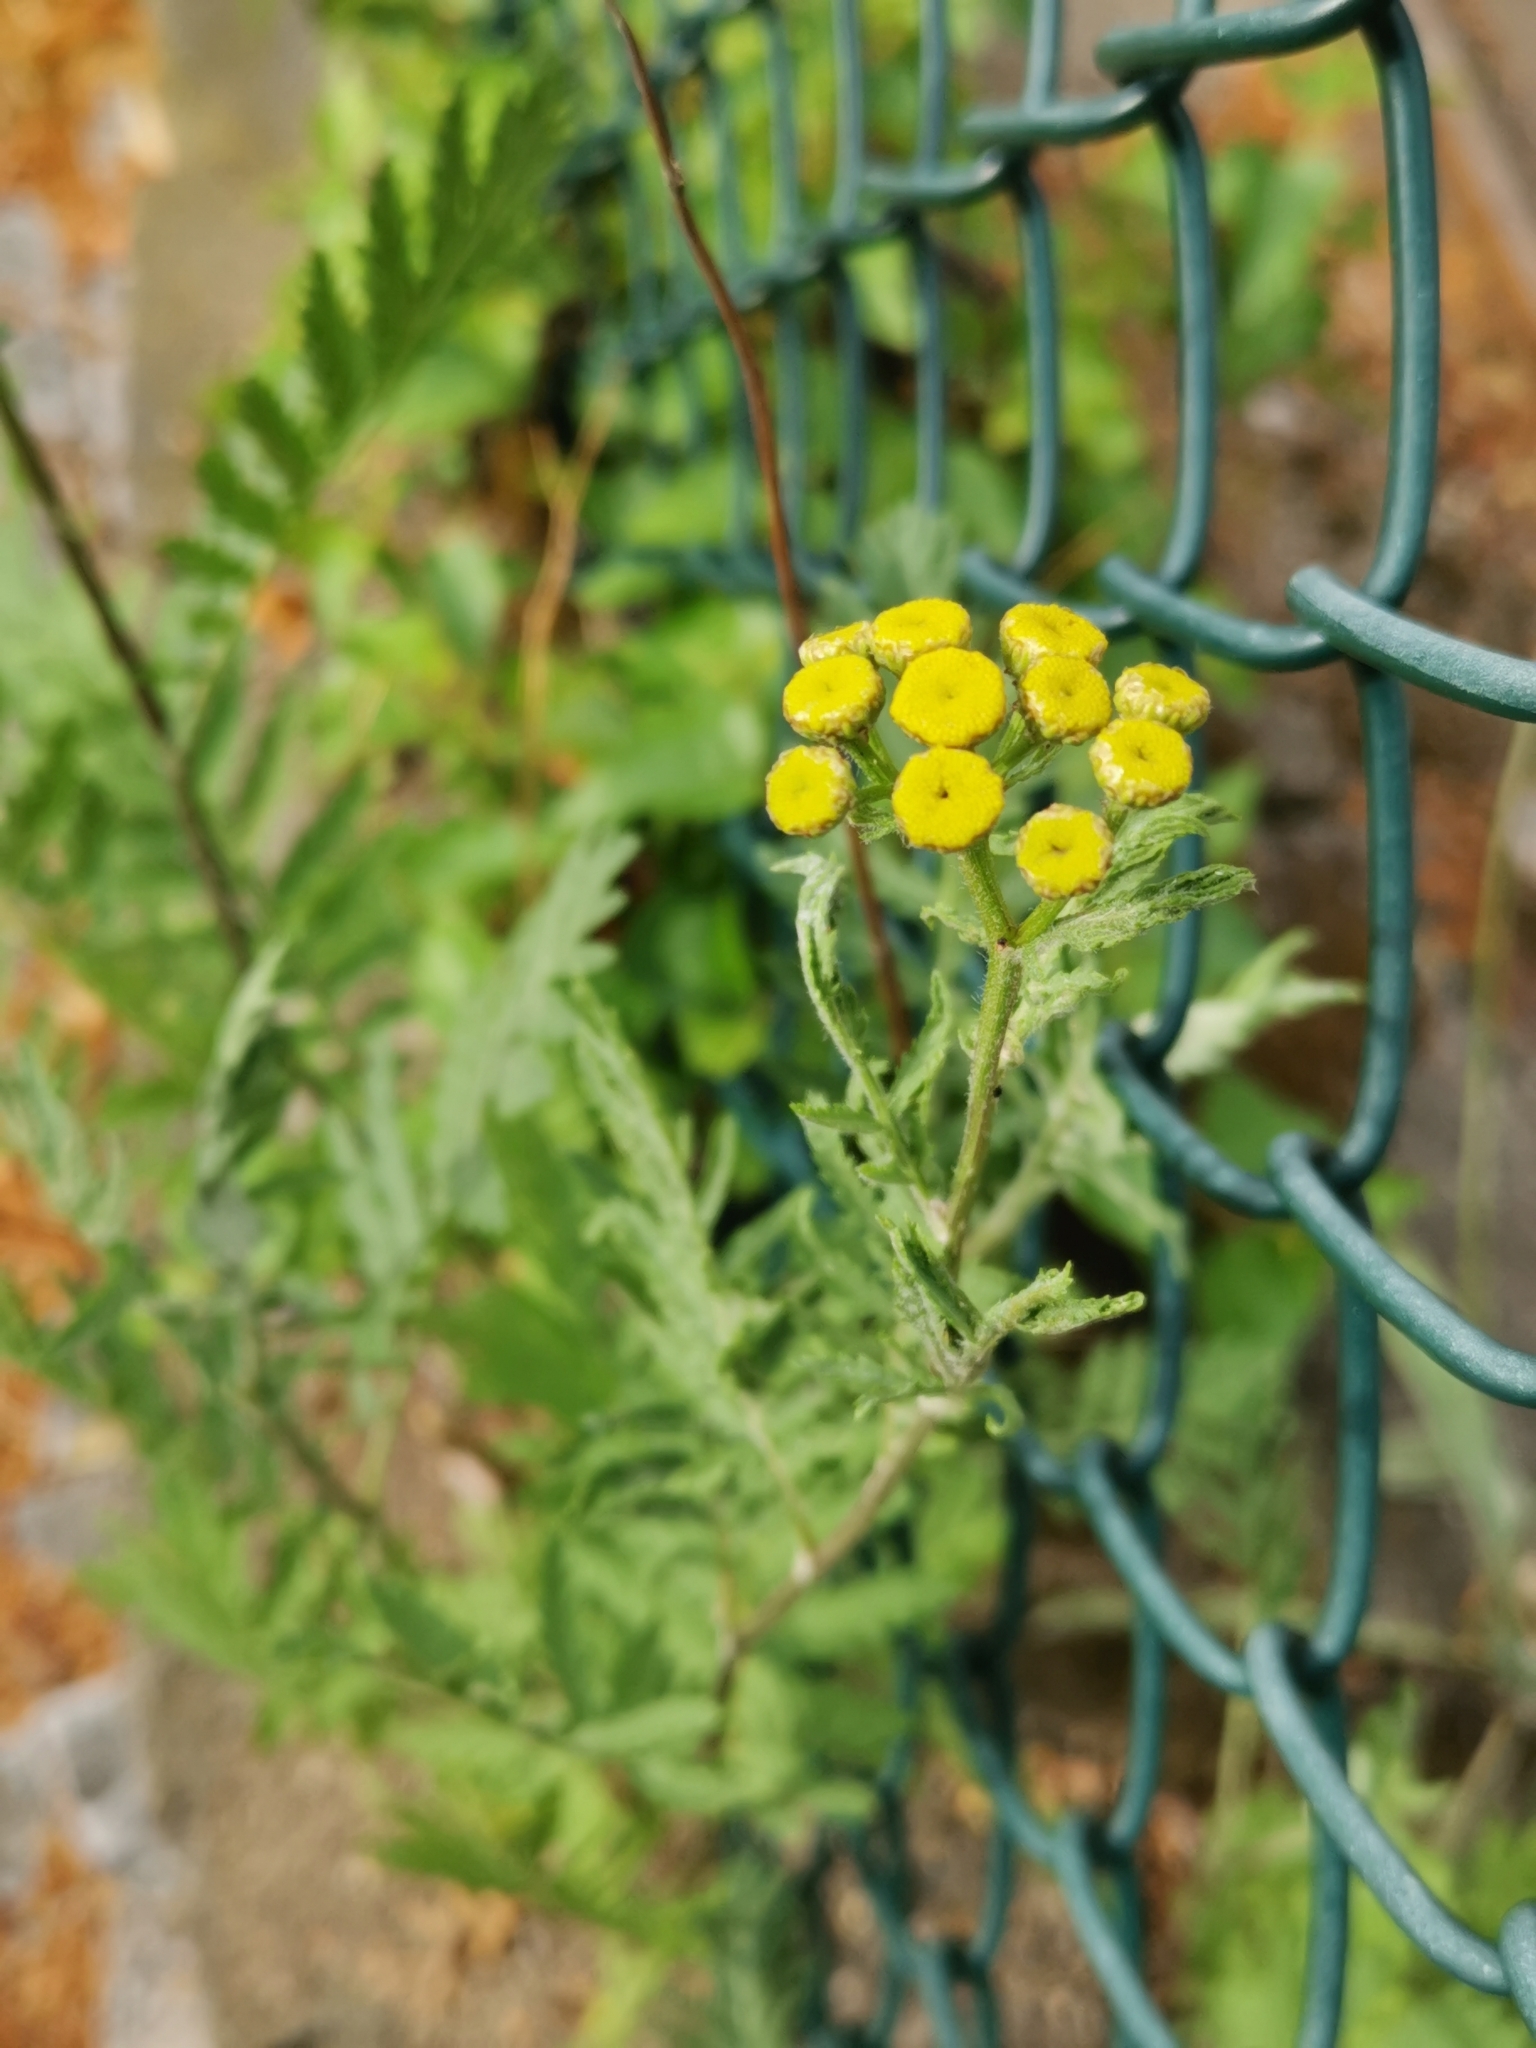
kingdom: Plantae
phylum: Tracheophyta
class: Magnoliopsida
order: Asterales
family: Asteraceae
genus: Tanacetum
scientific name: Tanacetum vulgare
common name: Common tansy
